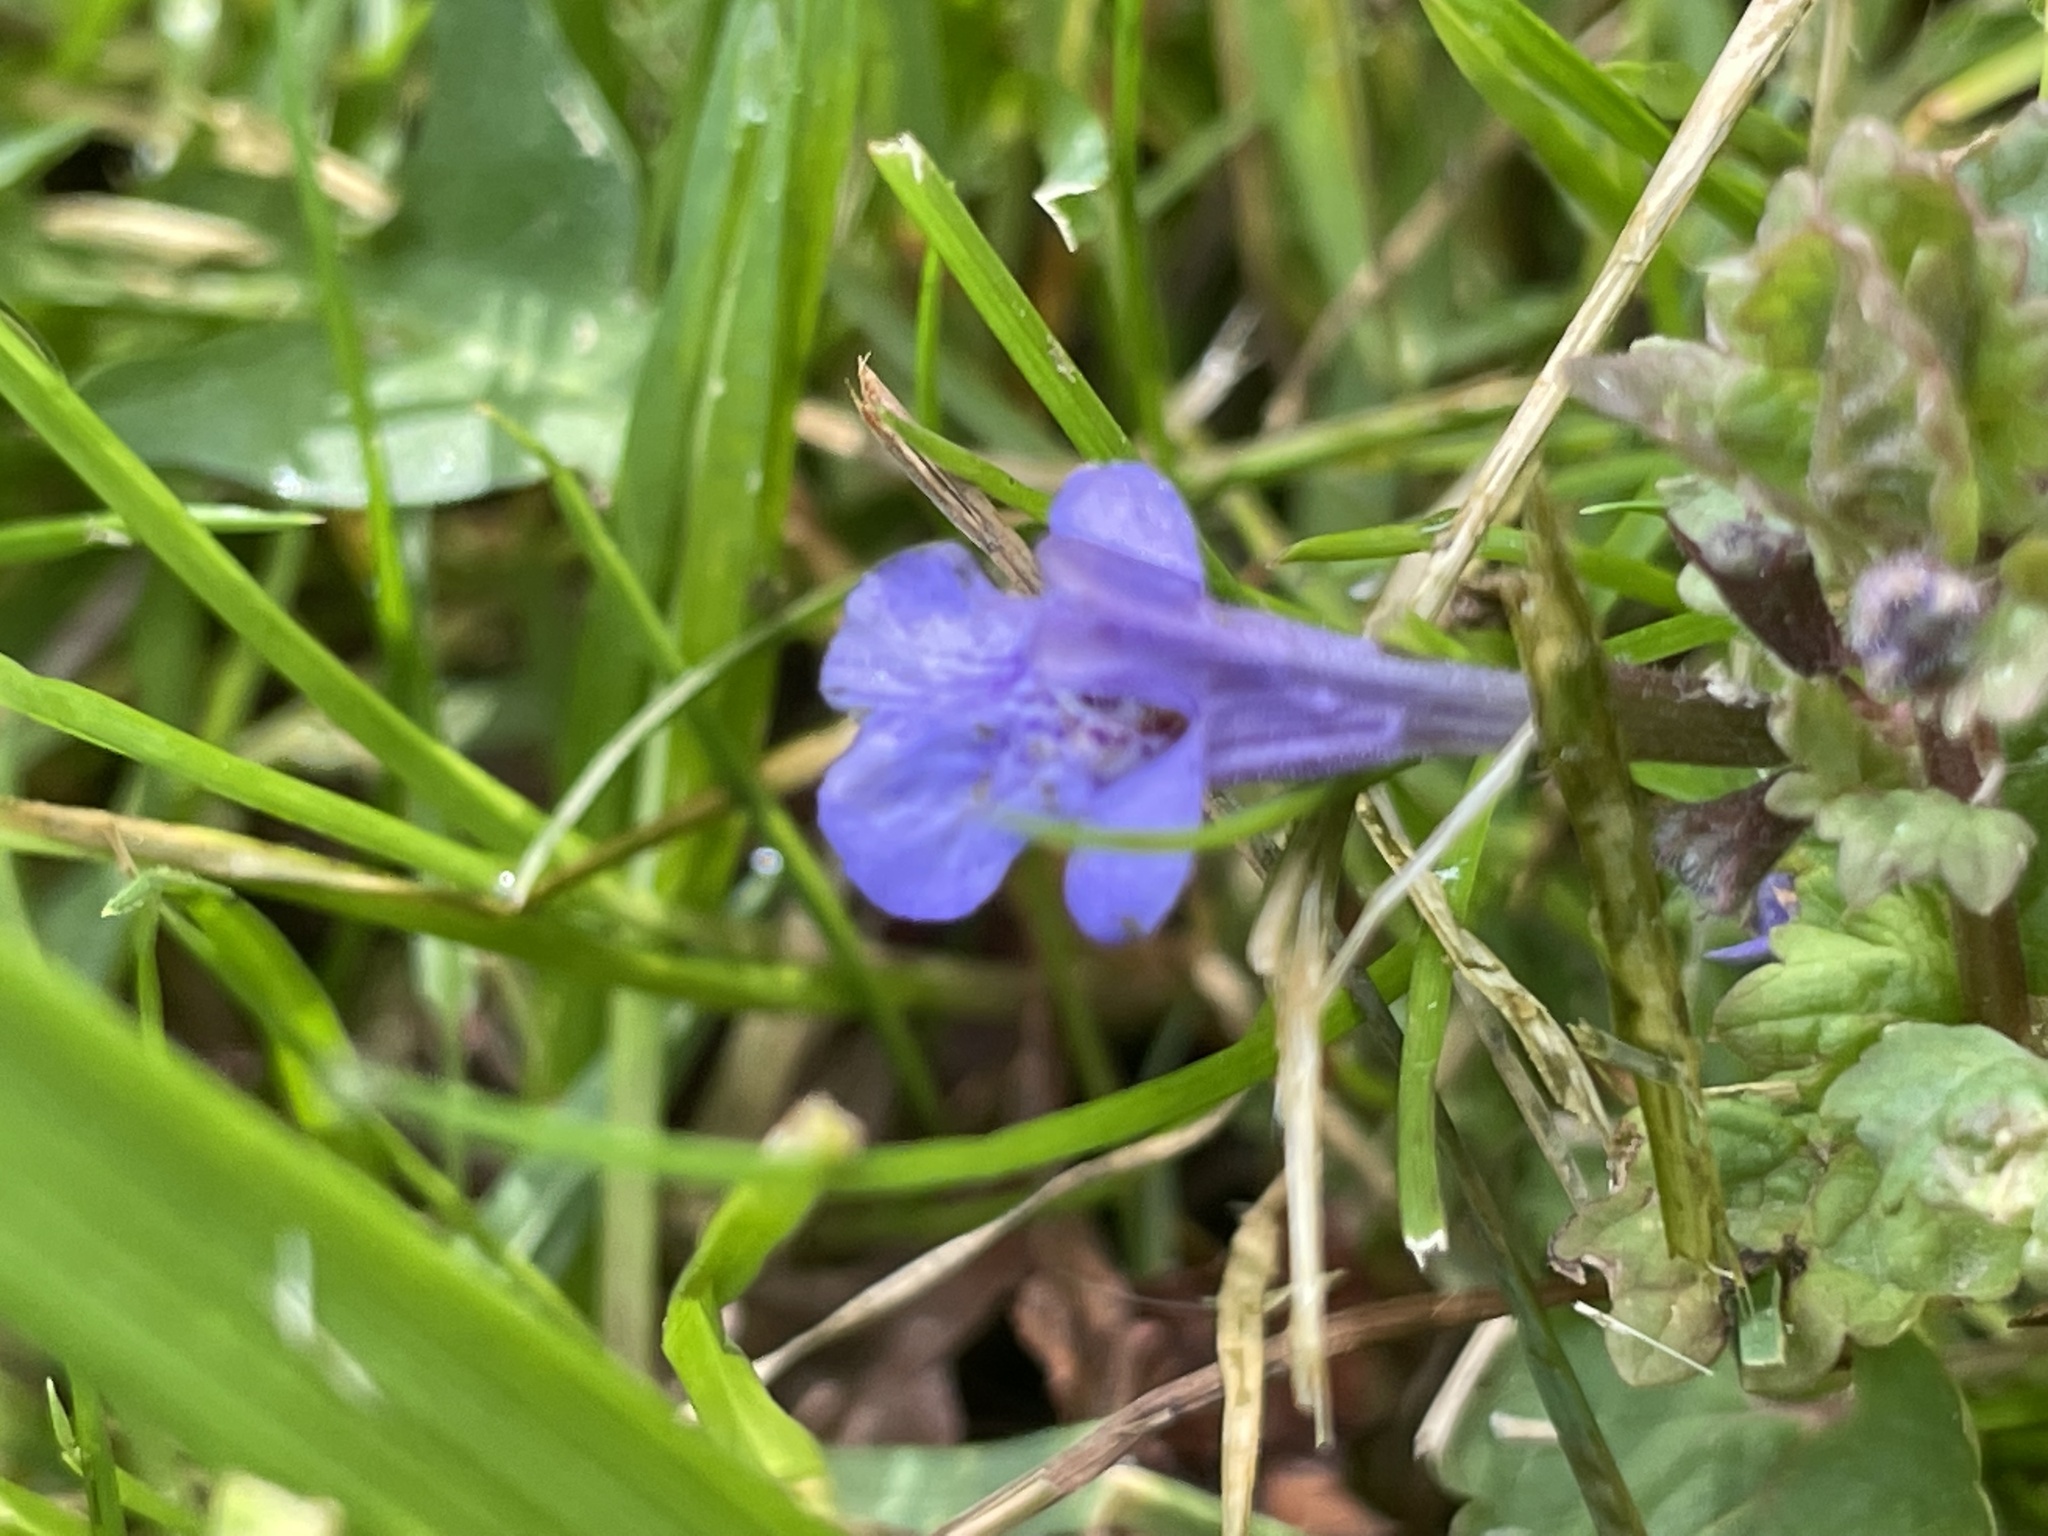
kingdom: Plantae
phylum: Tracheophyta
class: Magnoliopsida
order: Lamiales
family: Lamiaceae
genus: Glechoma
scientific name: Glechoma hederacea
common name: Ground ivy
